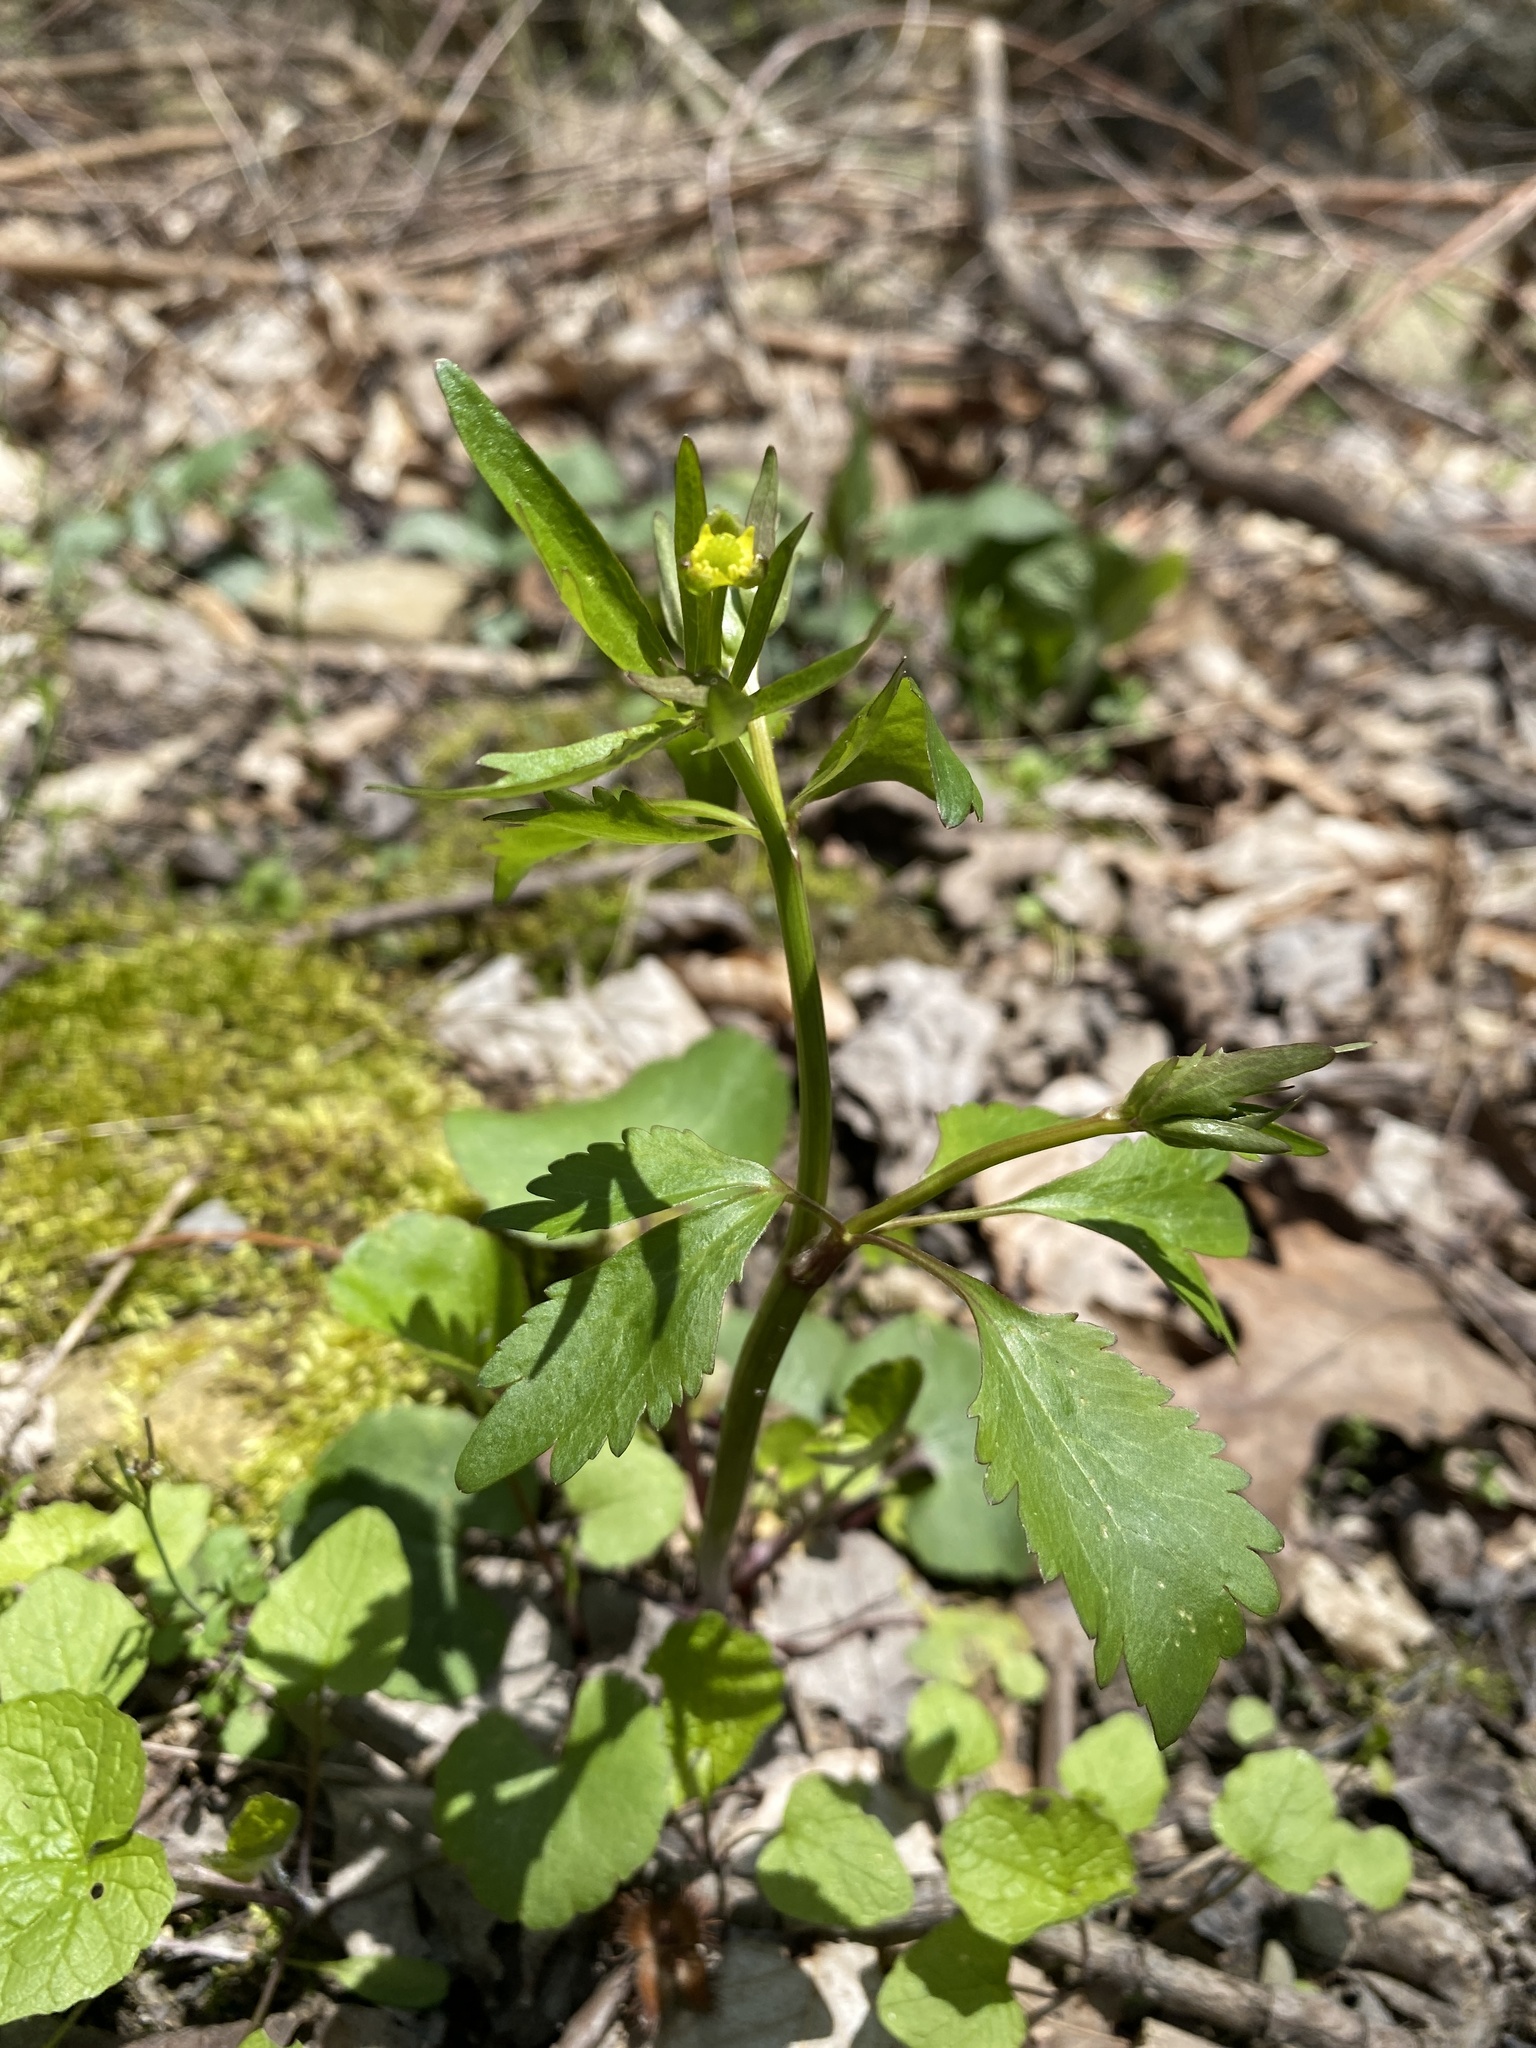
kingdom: Plantae
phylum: Tracheophyta
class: Magnoliopsida
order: Ranunculales
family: Ranunculaceae
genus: Ranunculus
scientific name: Ranunculus abortivus
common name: Early wood buttercup
